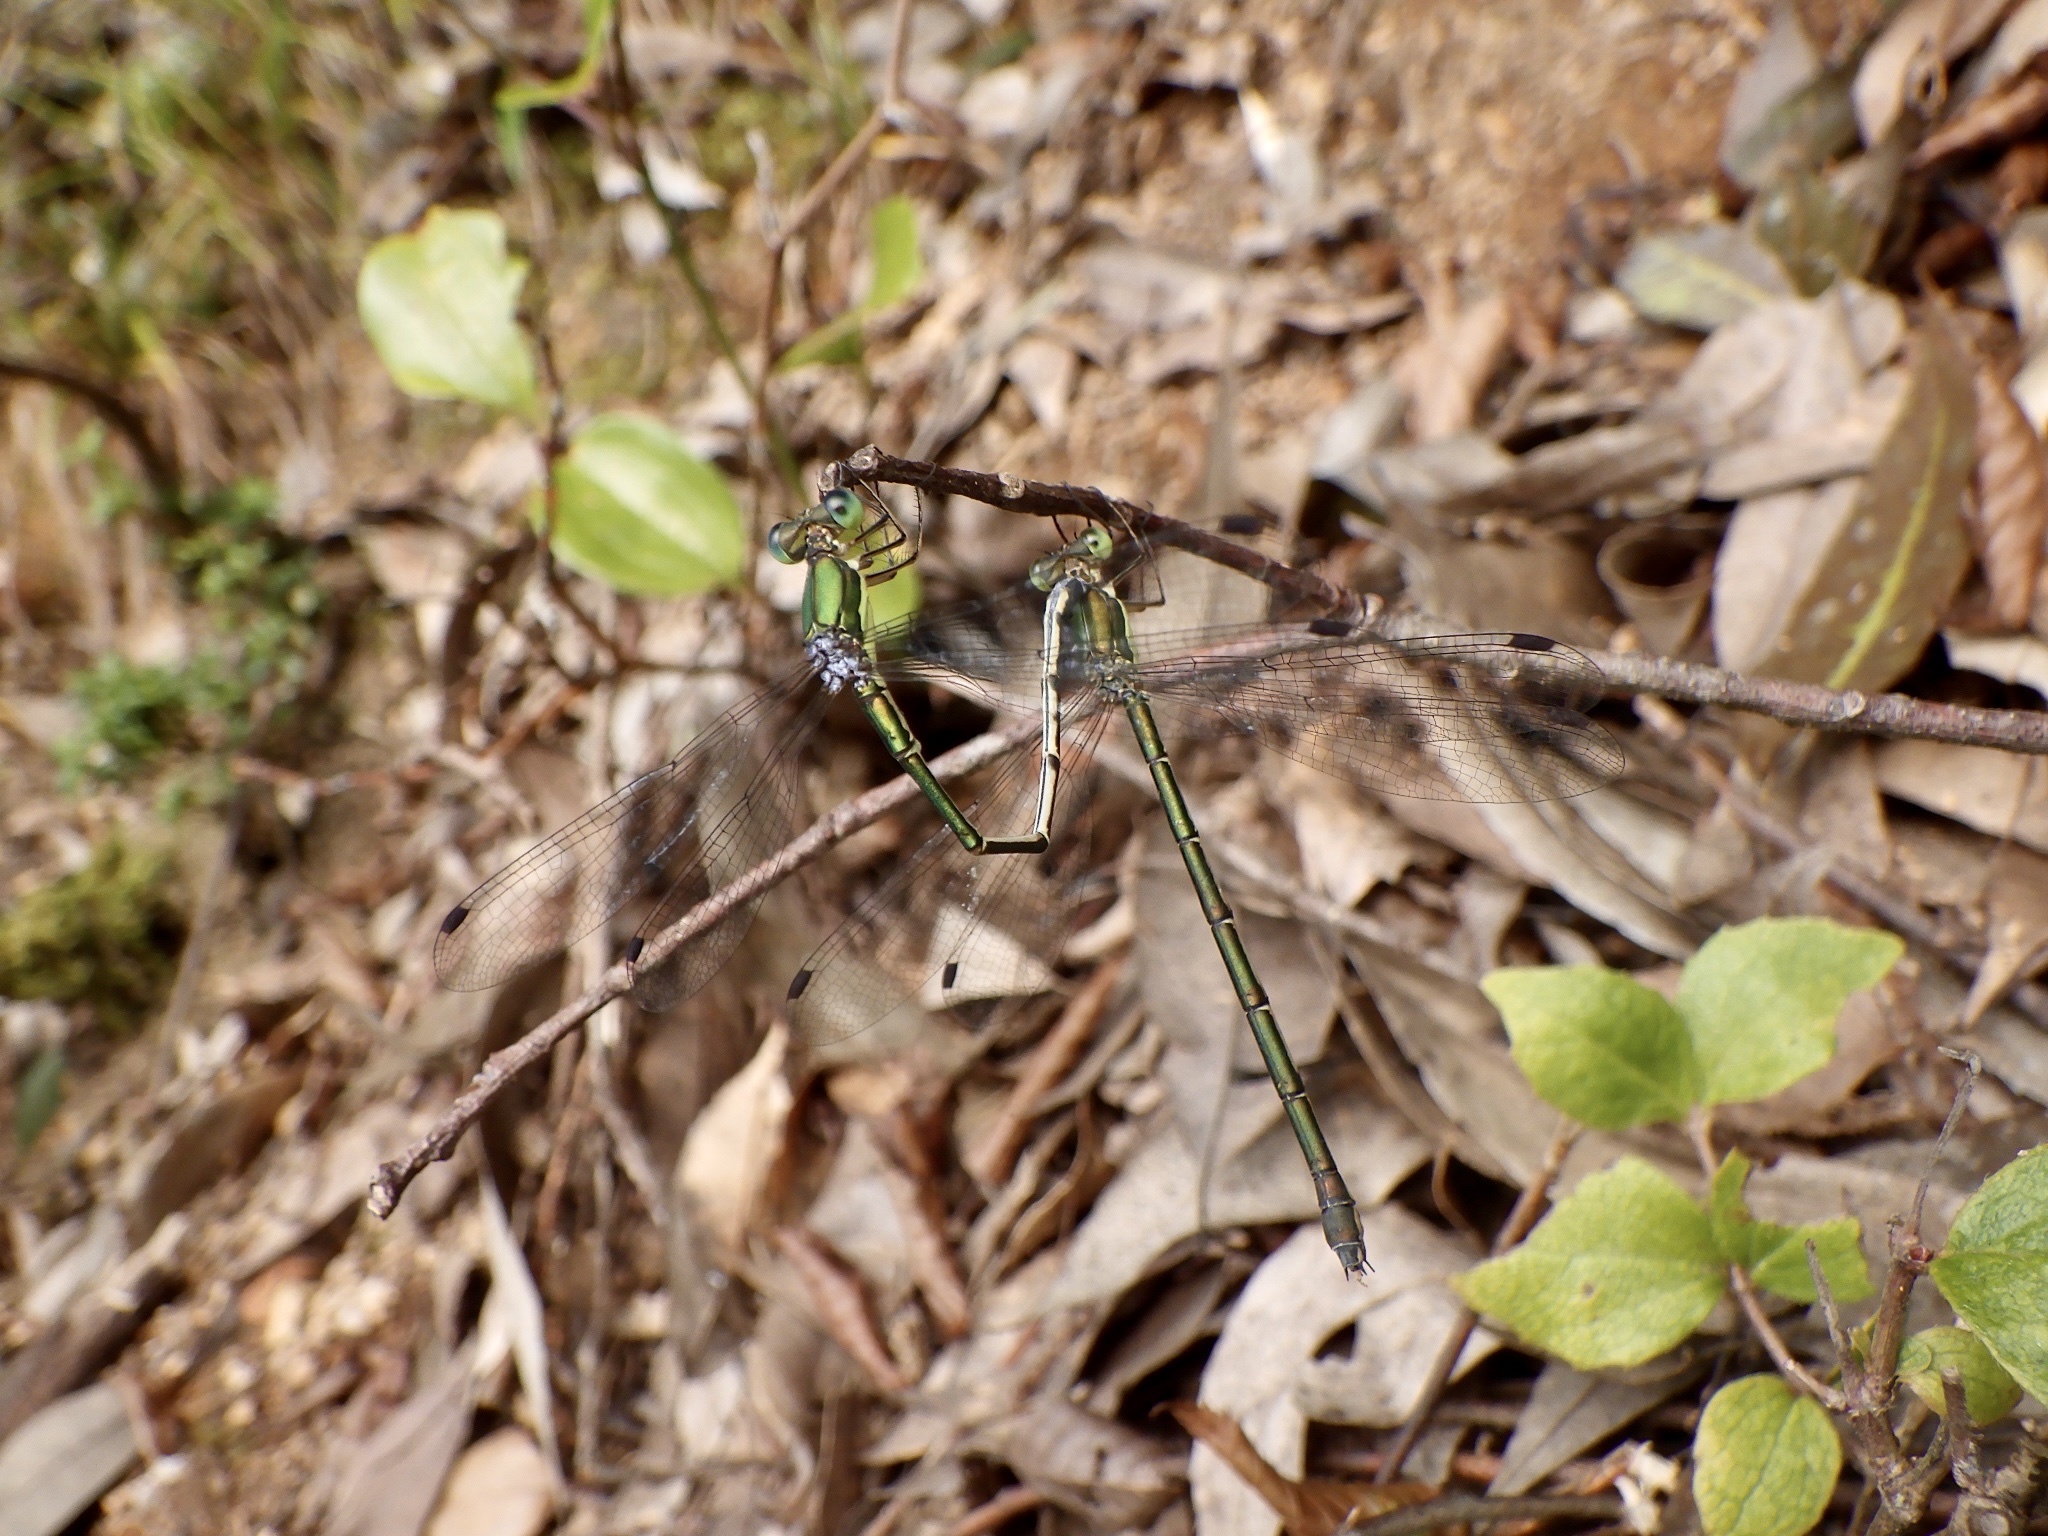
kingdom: Animalia
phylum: Arthropoda
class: Insecta
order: Odonata
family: Lestidae
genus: Lestes
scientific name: Lestes temporalis
